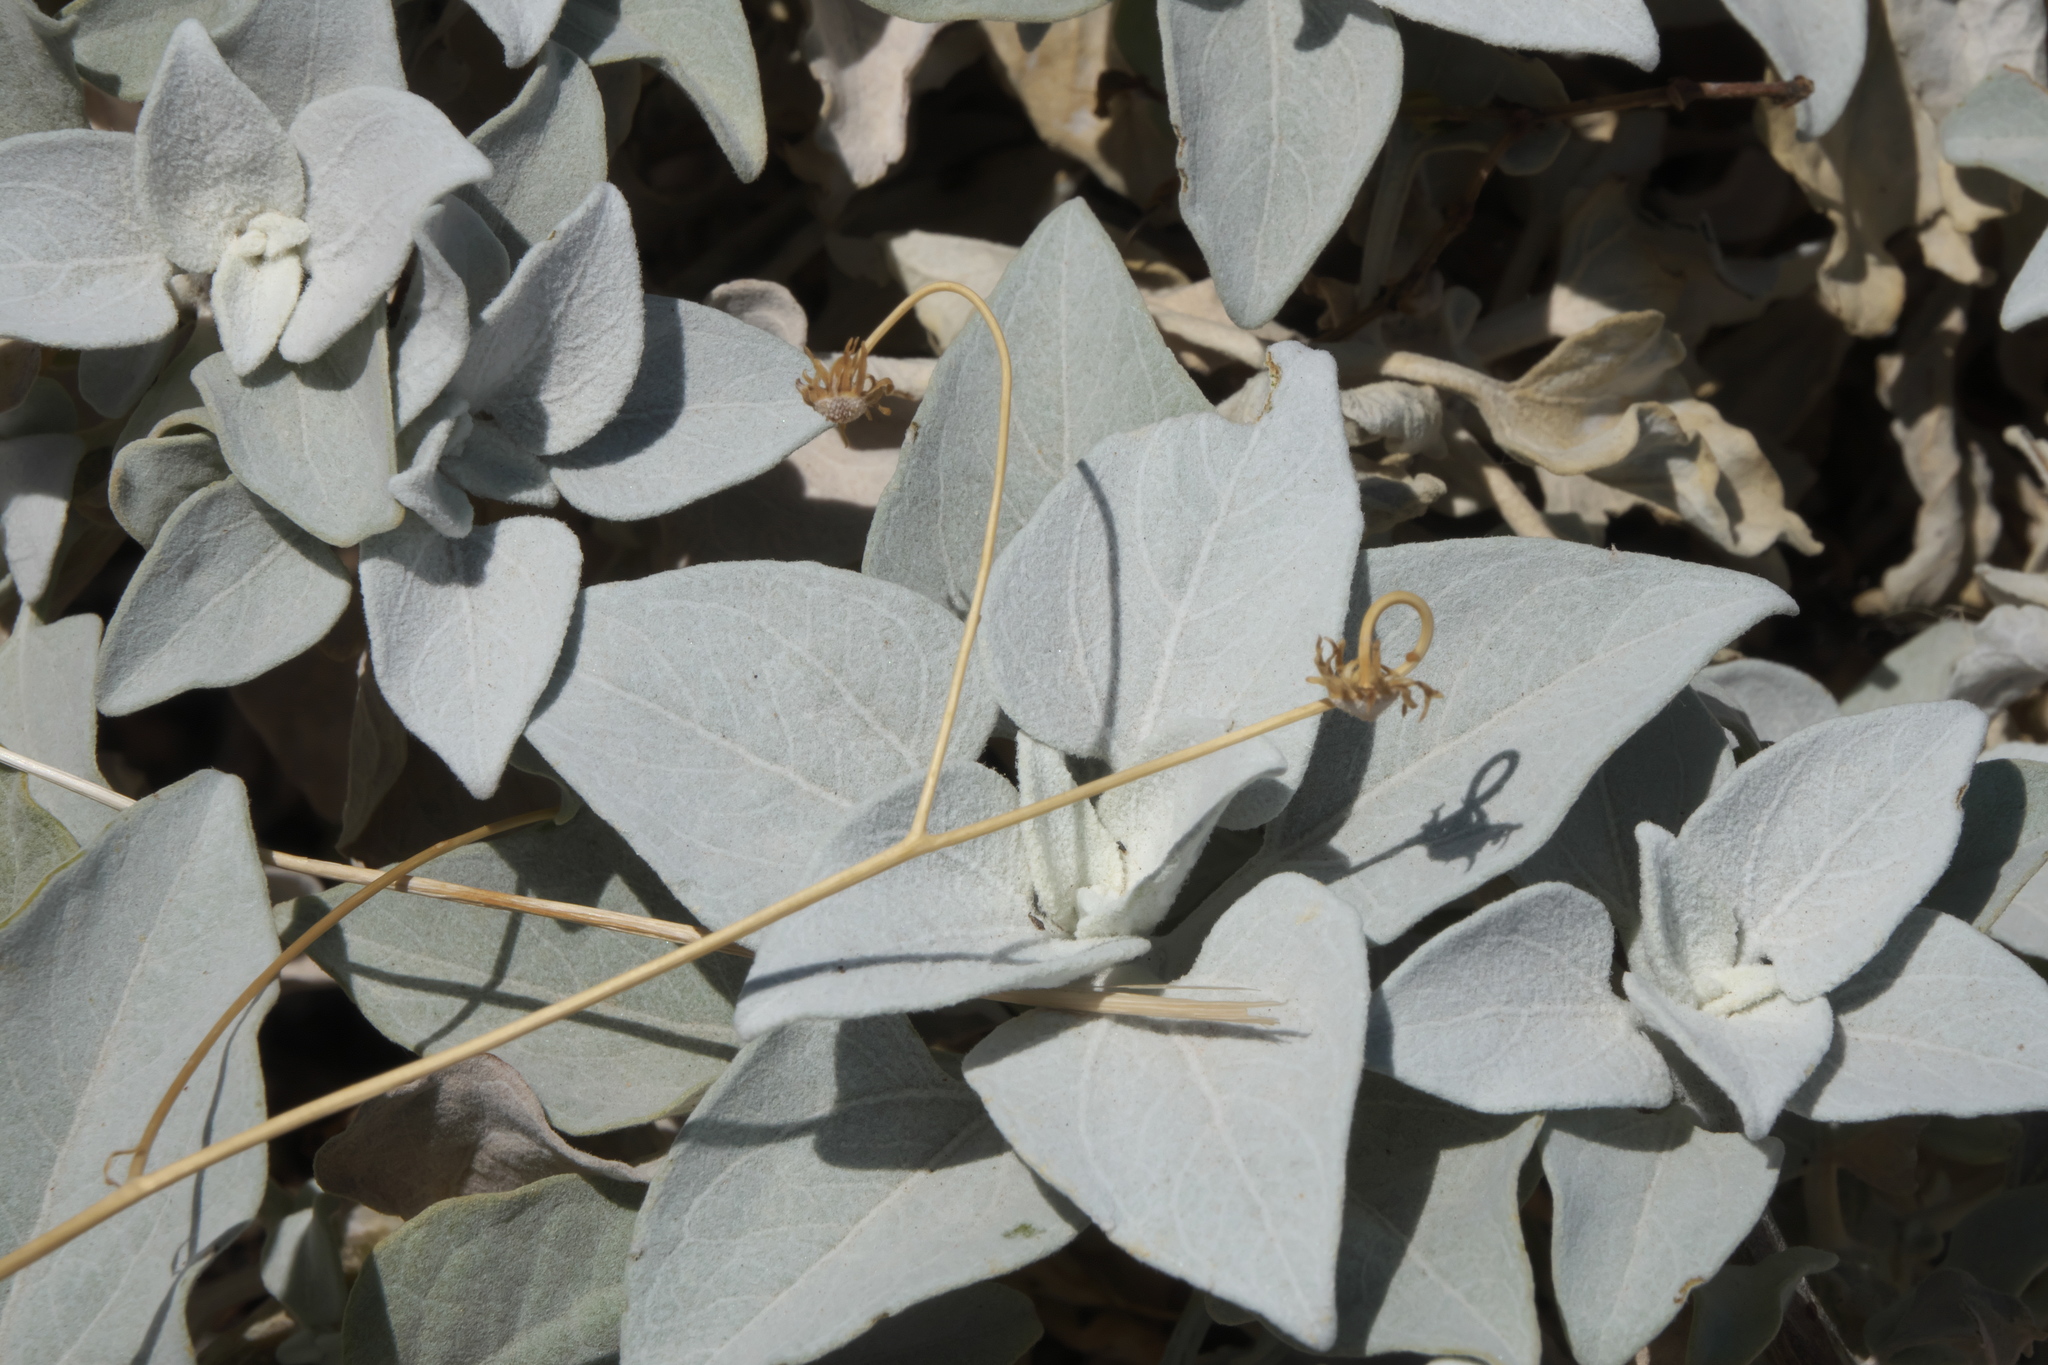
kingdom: Plantae
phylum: Tracheophyta
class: Magnoliopsida
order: Asterales
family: Asteraceae
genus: Encelia
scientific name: Encelia farinosa
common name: Brittlebush
